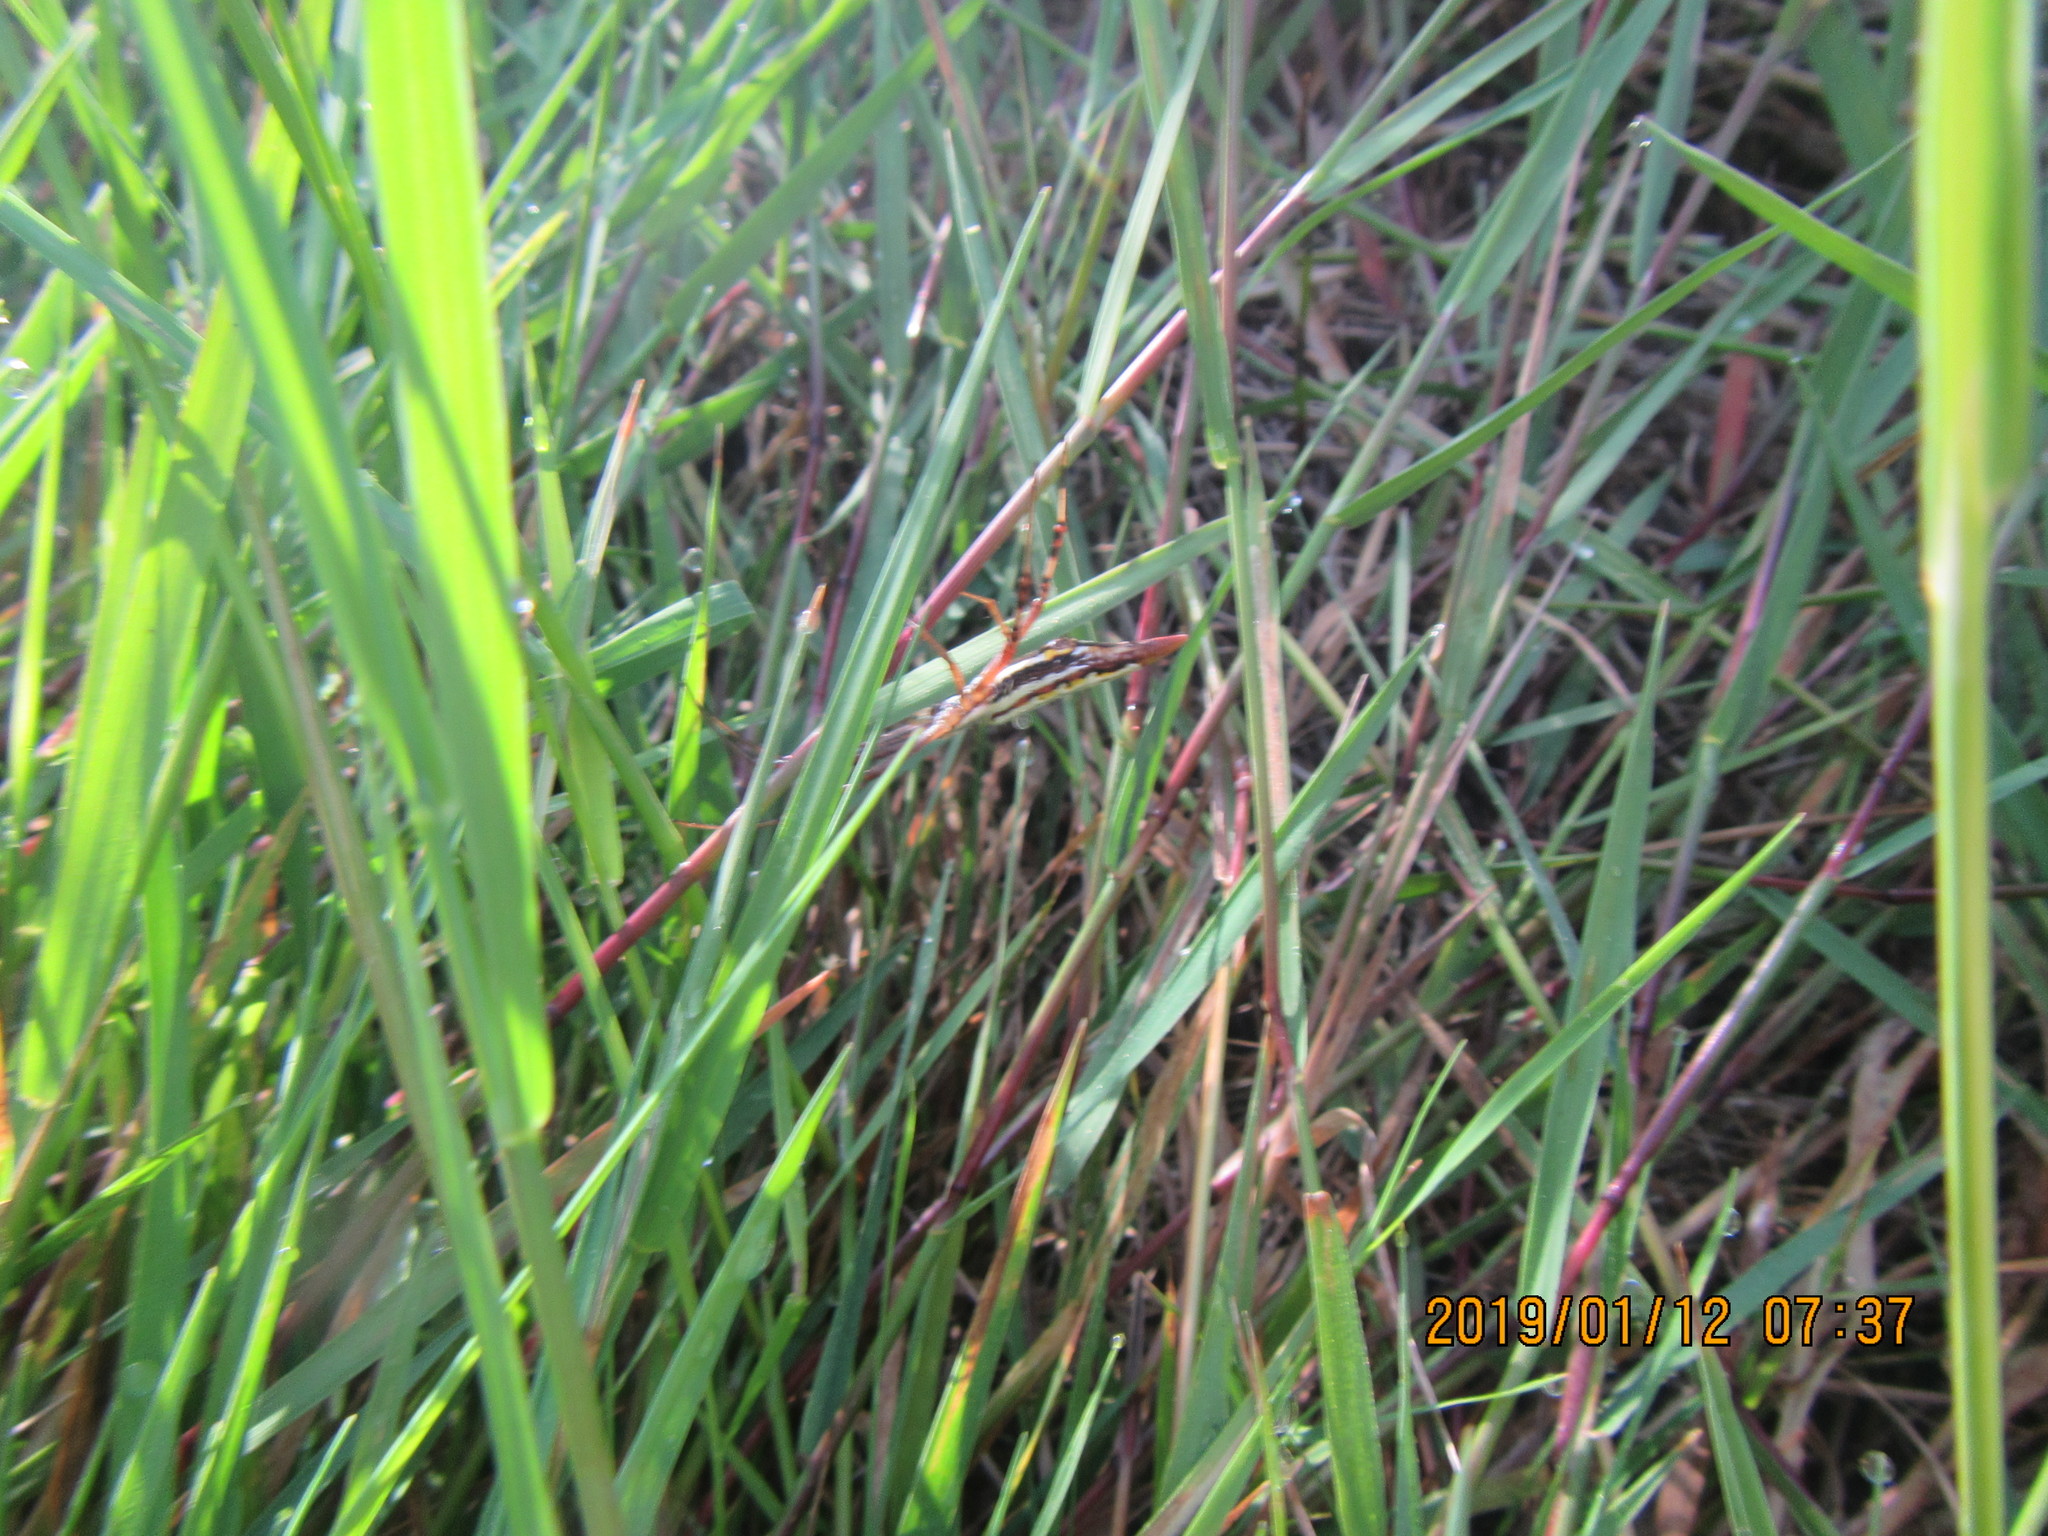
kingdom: Animalia
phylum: Arthropoda
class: Arachnida
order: Araneae
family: Araneidae
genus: Argiope
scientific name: Argiope protensa
